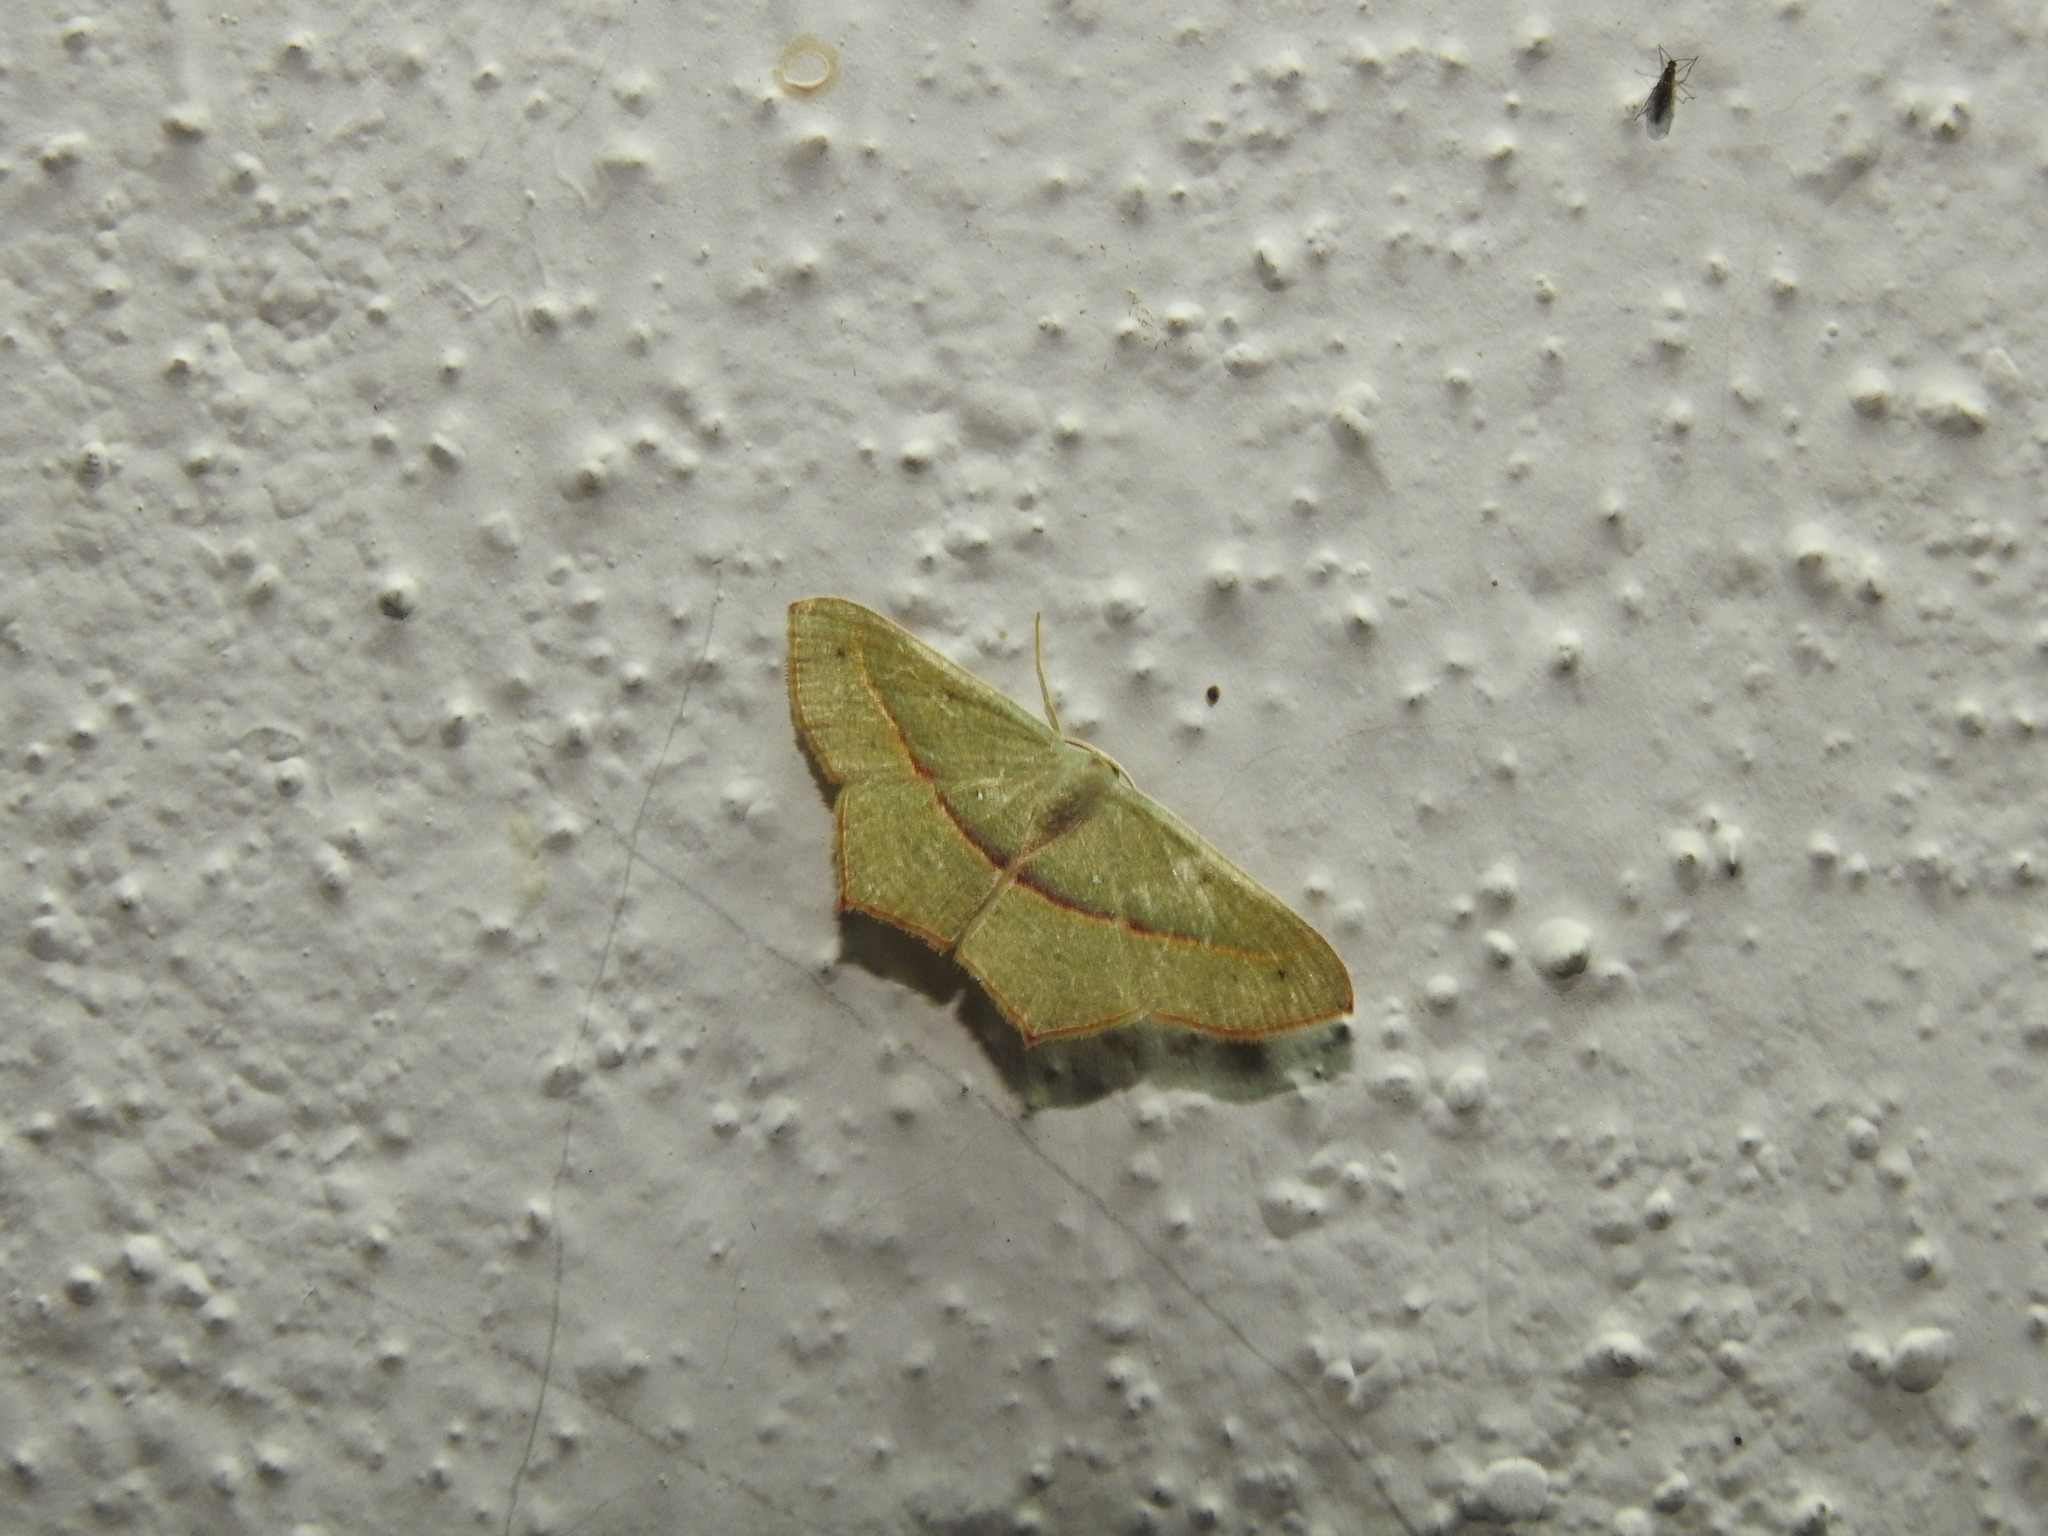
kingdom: Animalia
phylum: Arthropoda
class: Insecta
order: Lepidoptera
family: Geometridae
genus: Traminda
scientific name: Traminda mundissima
